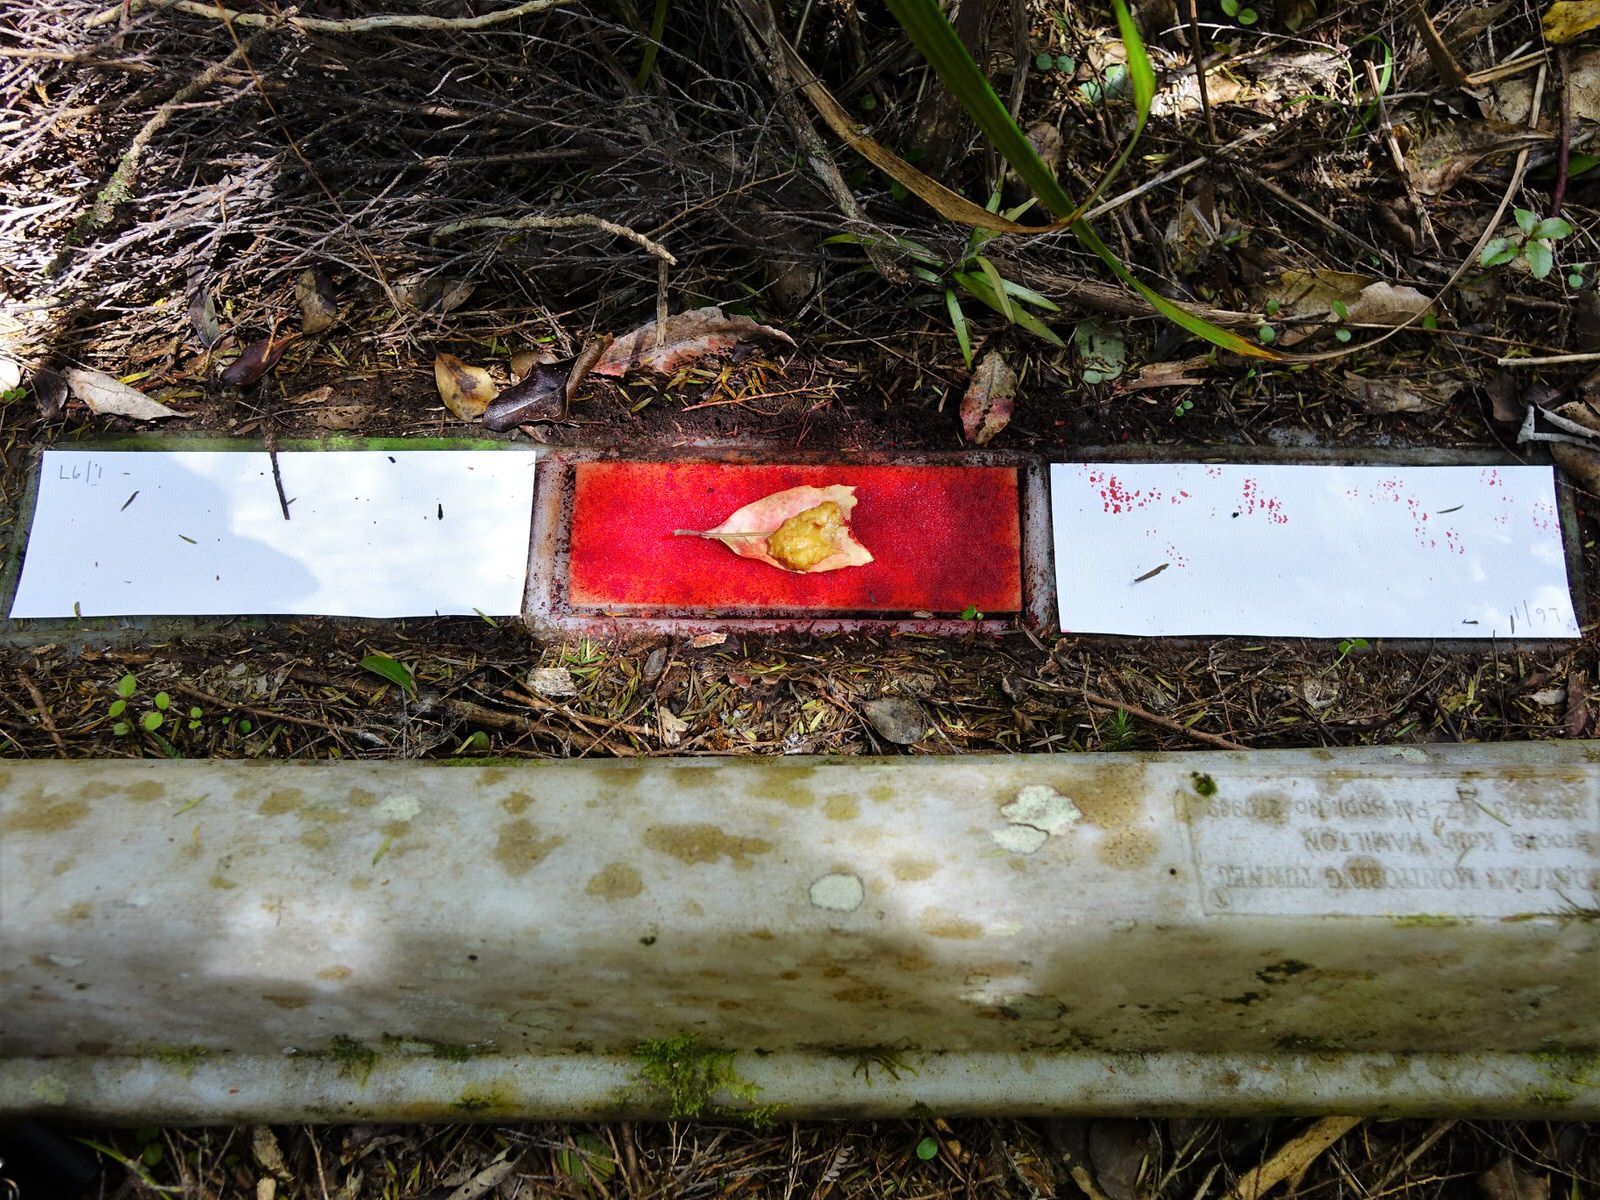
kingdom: Animalia
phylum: Chordata
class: Mammalia
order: Rodentia
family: Muridae
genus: Mus
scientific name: Mus musculus
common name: House mouse
